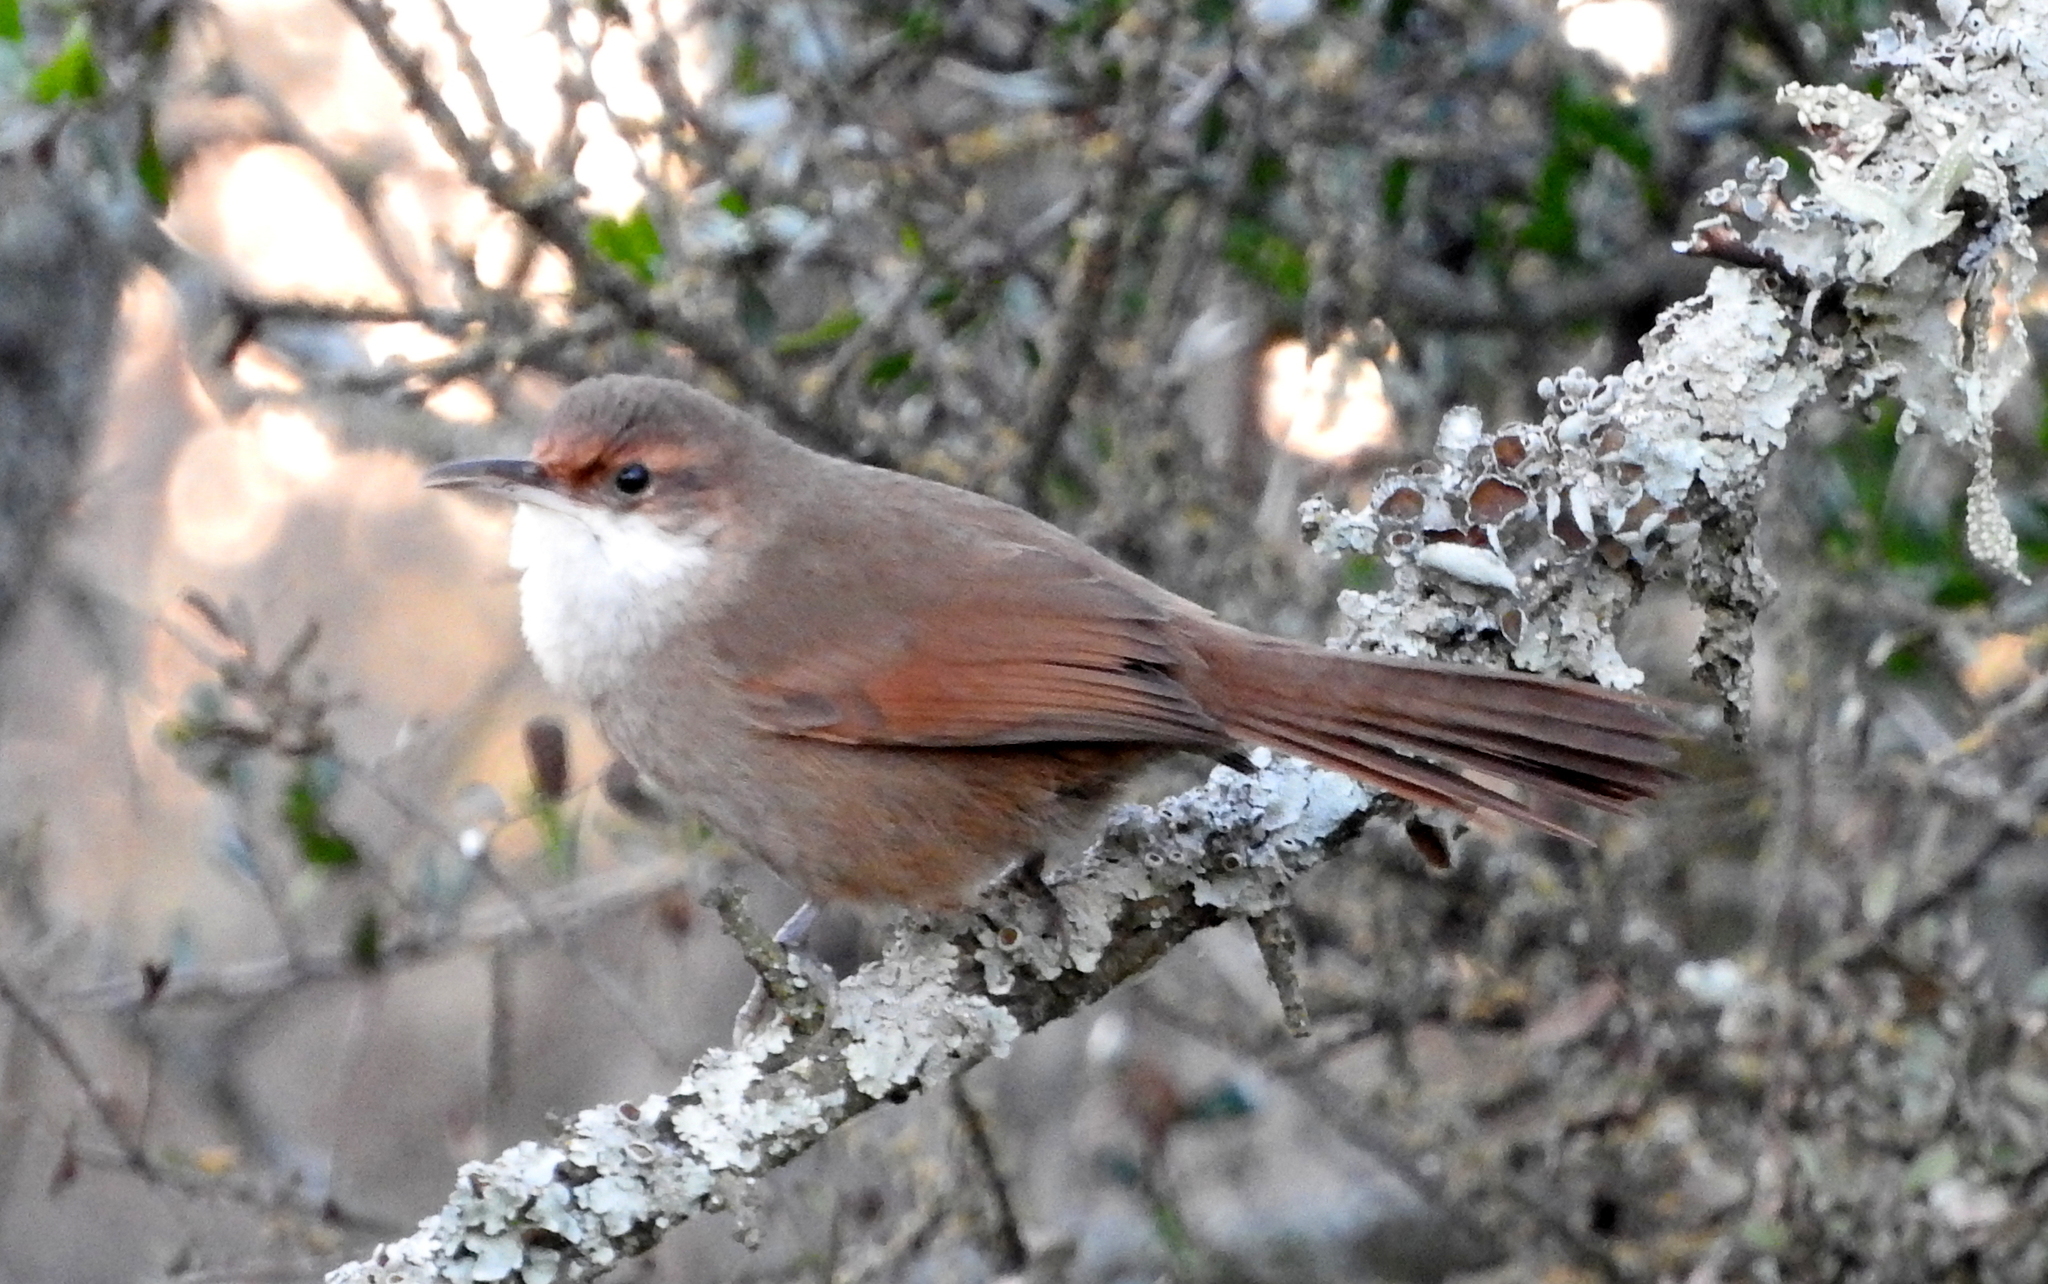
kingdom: Animalia
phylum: Chordata
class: Aves
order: Passeriformes
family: Furnariidae
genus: Upucerthia
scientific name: Upucerthia certhioides
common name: Chaco earthcreeper
